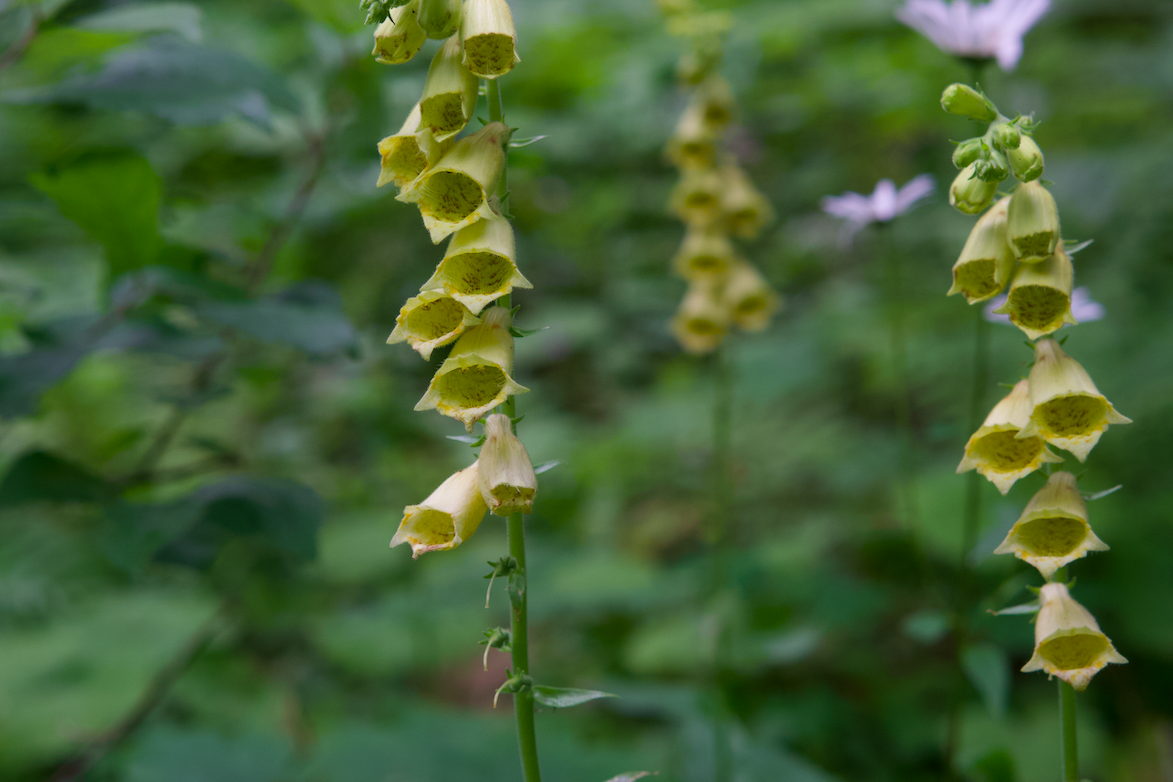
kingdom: Plantae
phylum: Tracheophyta
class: Magnoliopsida
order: Lamiales
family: Plantaginaceae
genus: Digitalis
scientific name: Digitalis grandiflora
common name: Yellow foxglove
